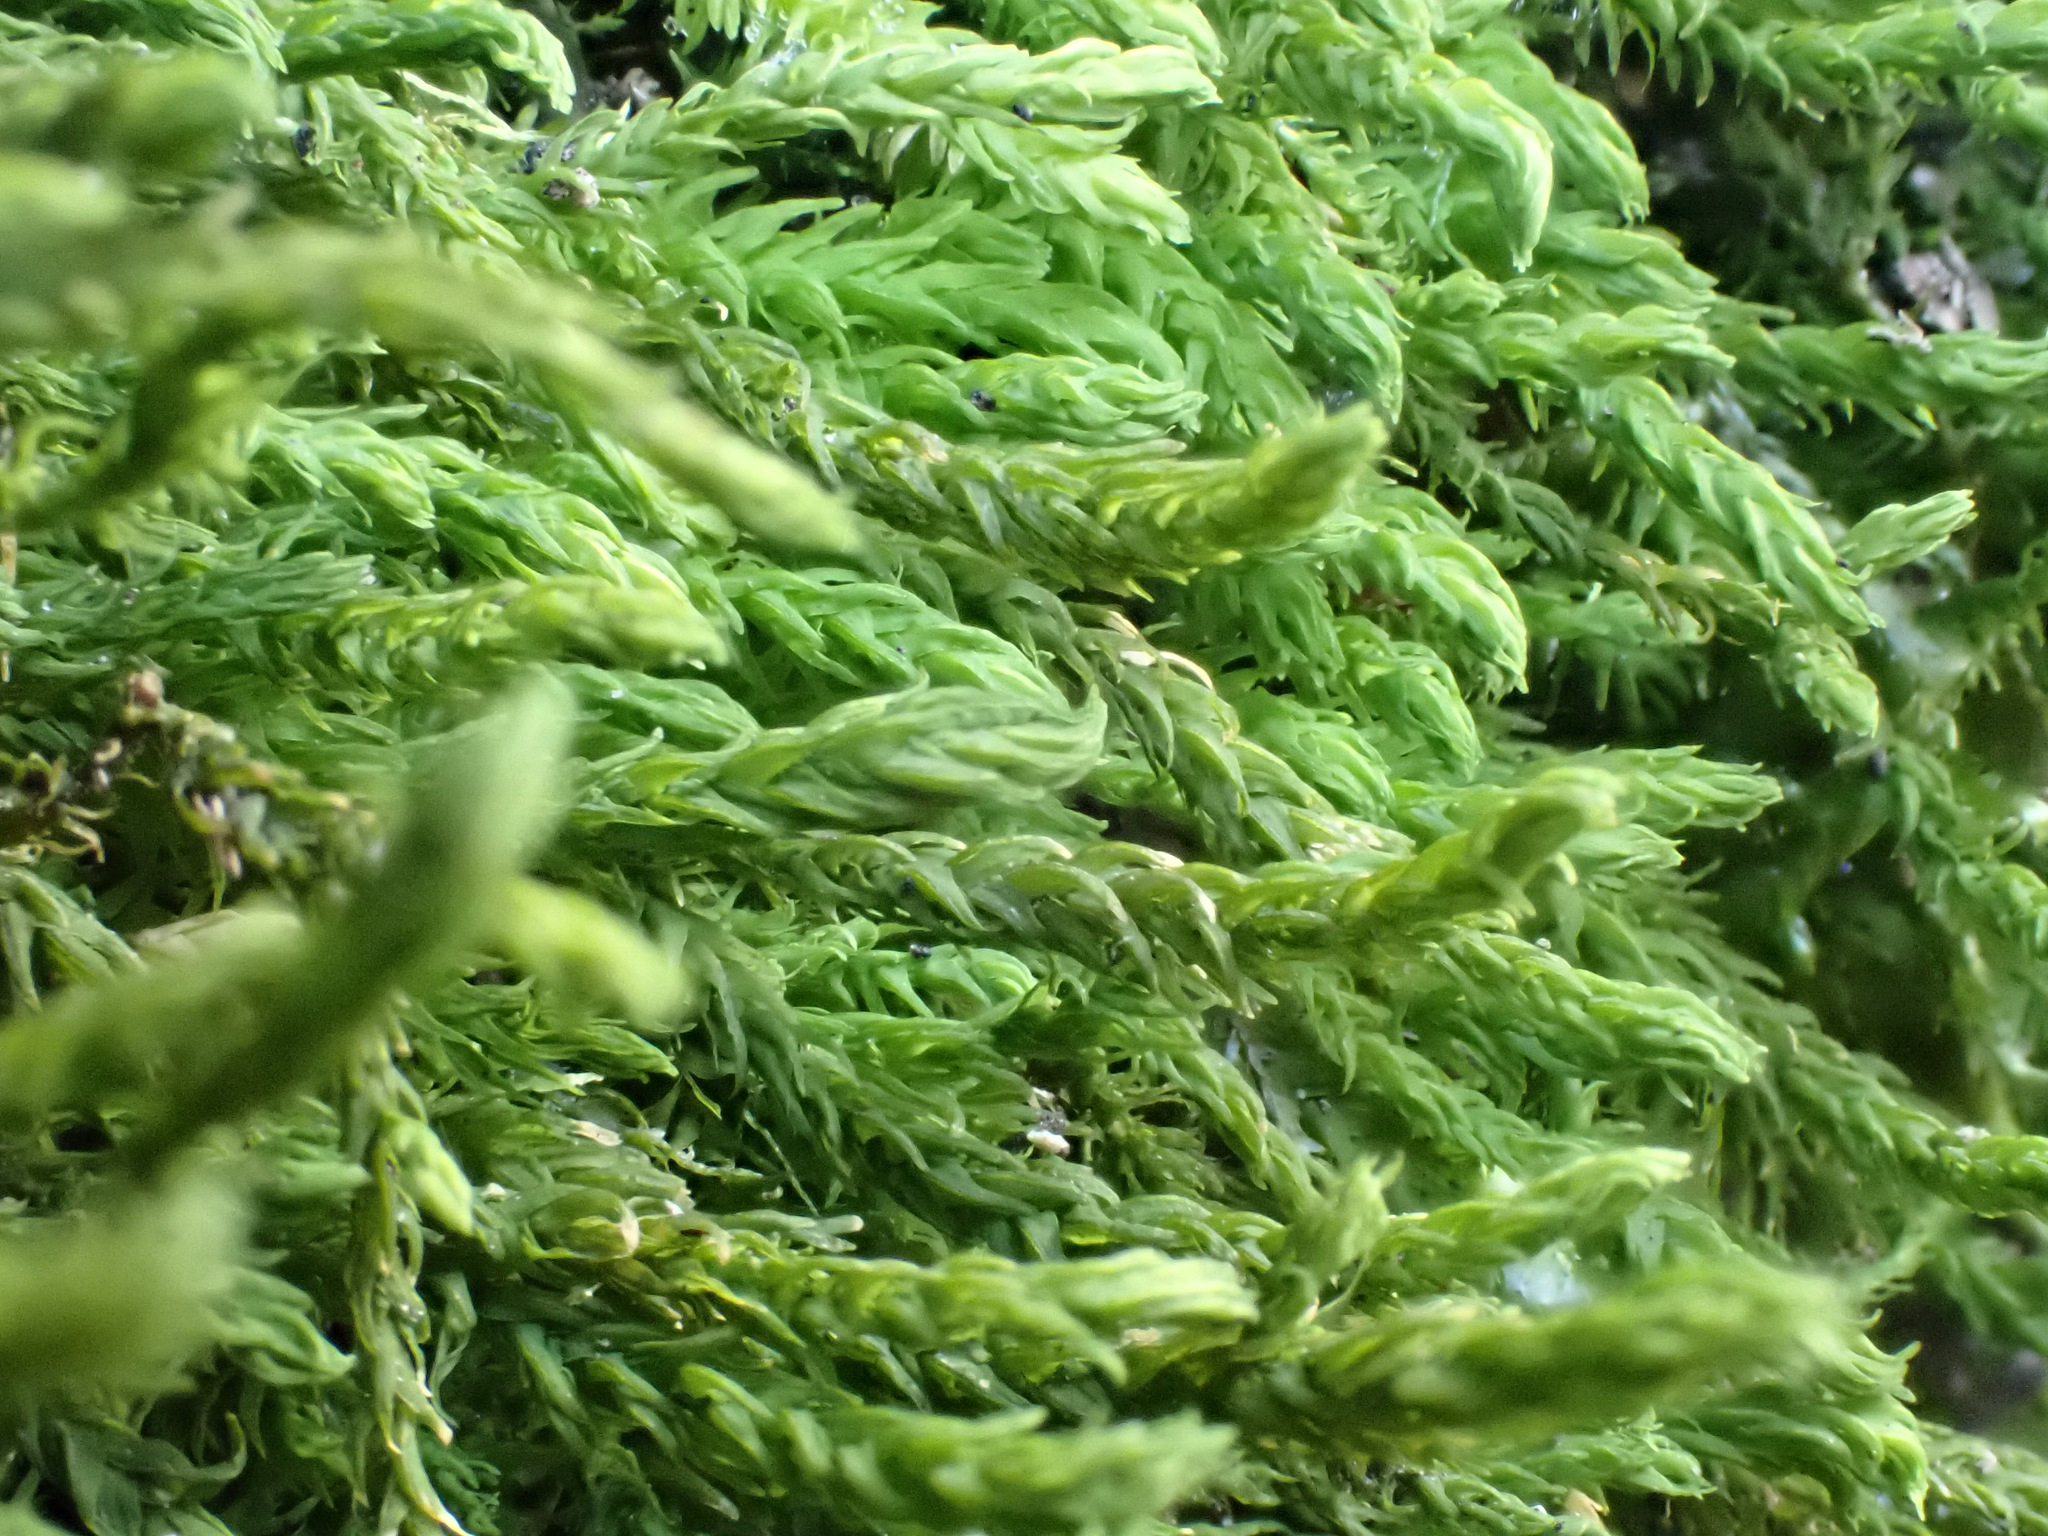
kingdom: Plantae
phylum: Bryophyta
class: Bryopsida
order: Hypnales
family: Anomodontaceae
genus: Anomodon
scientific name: Anomodon viticulosus
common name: Tall anomodon
